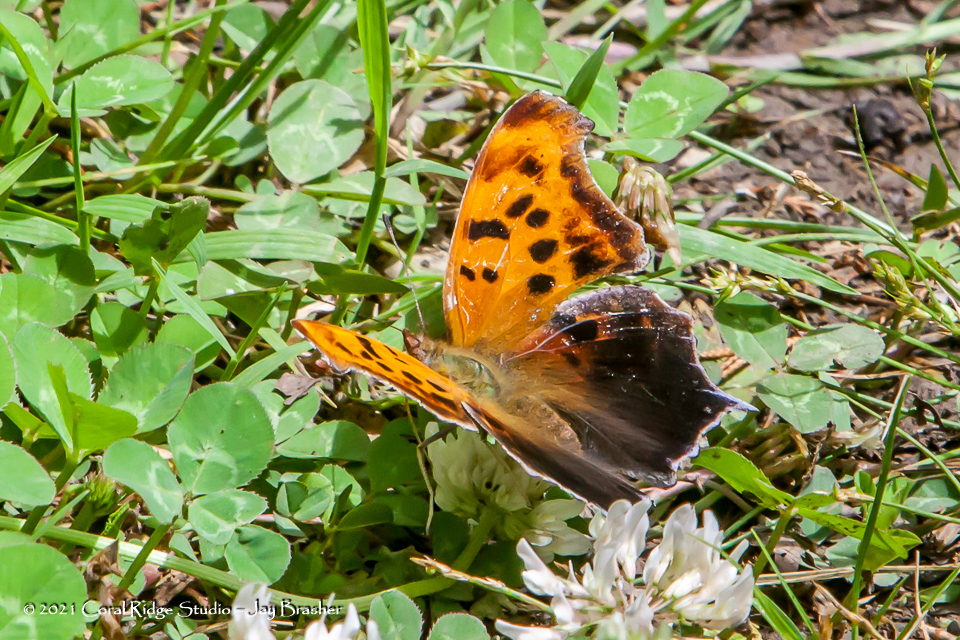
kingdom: Animalia
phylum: Arthropoda
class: Insecta
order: Lepidoptera
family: Nymphalidae
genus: Polygonia
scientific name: Polygonia interrogationis
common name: Question mark
